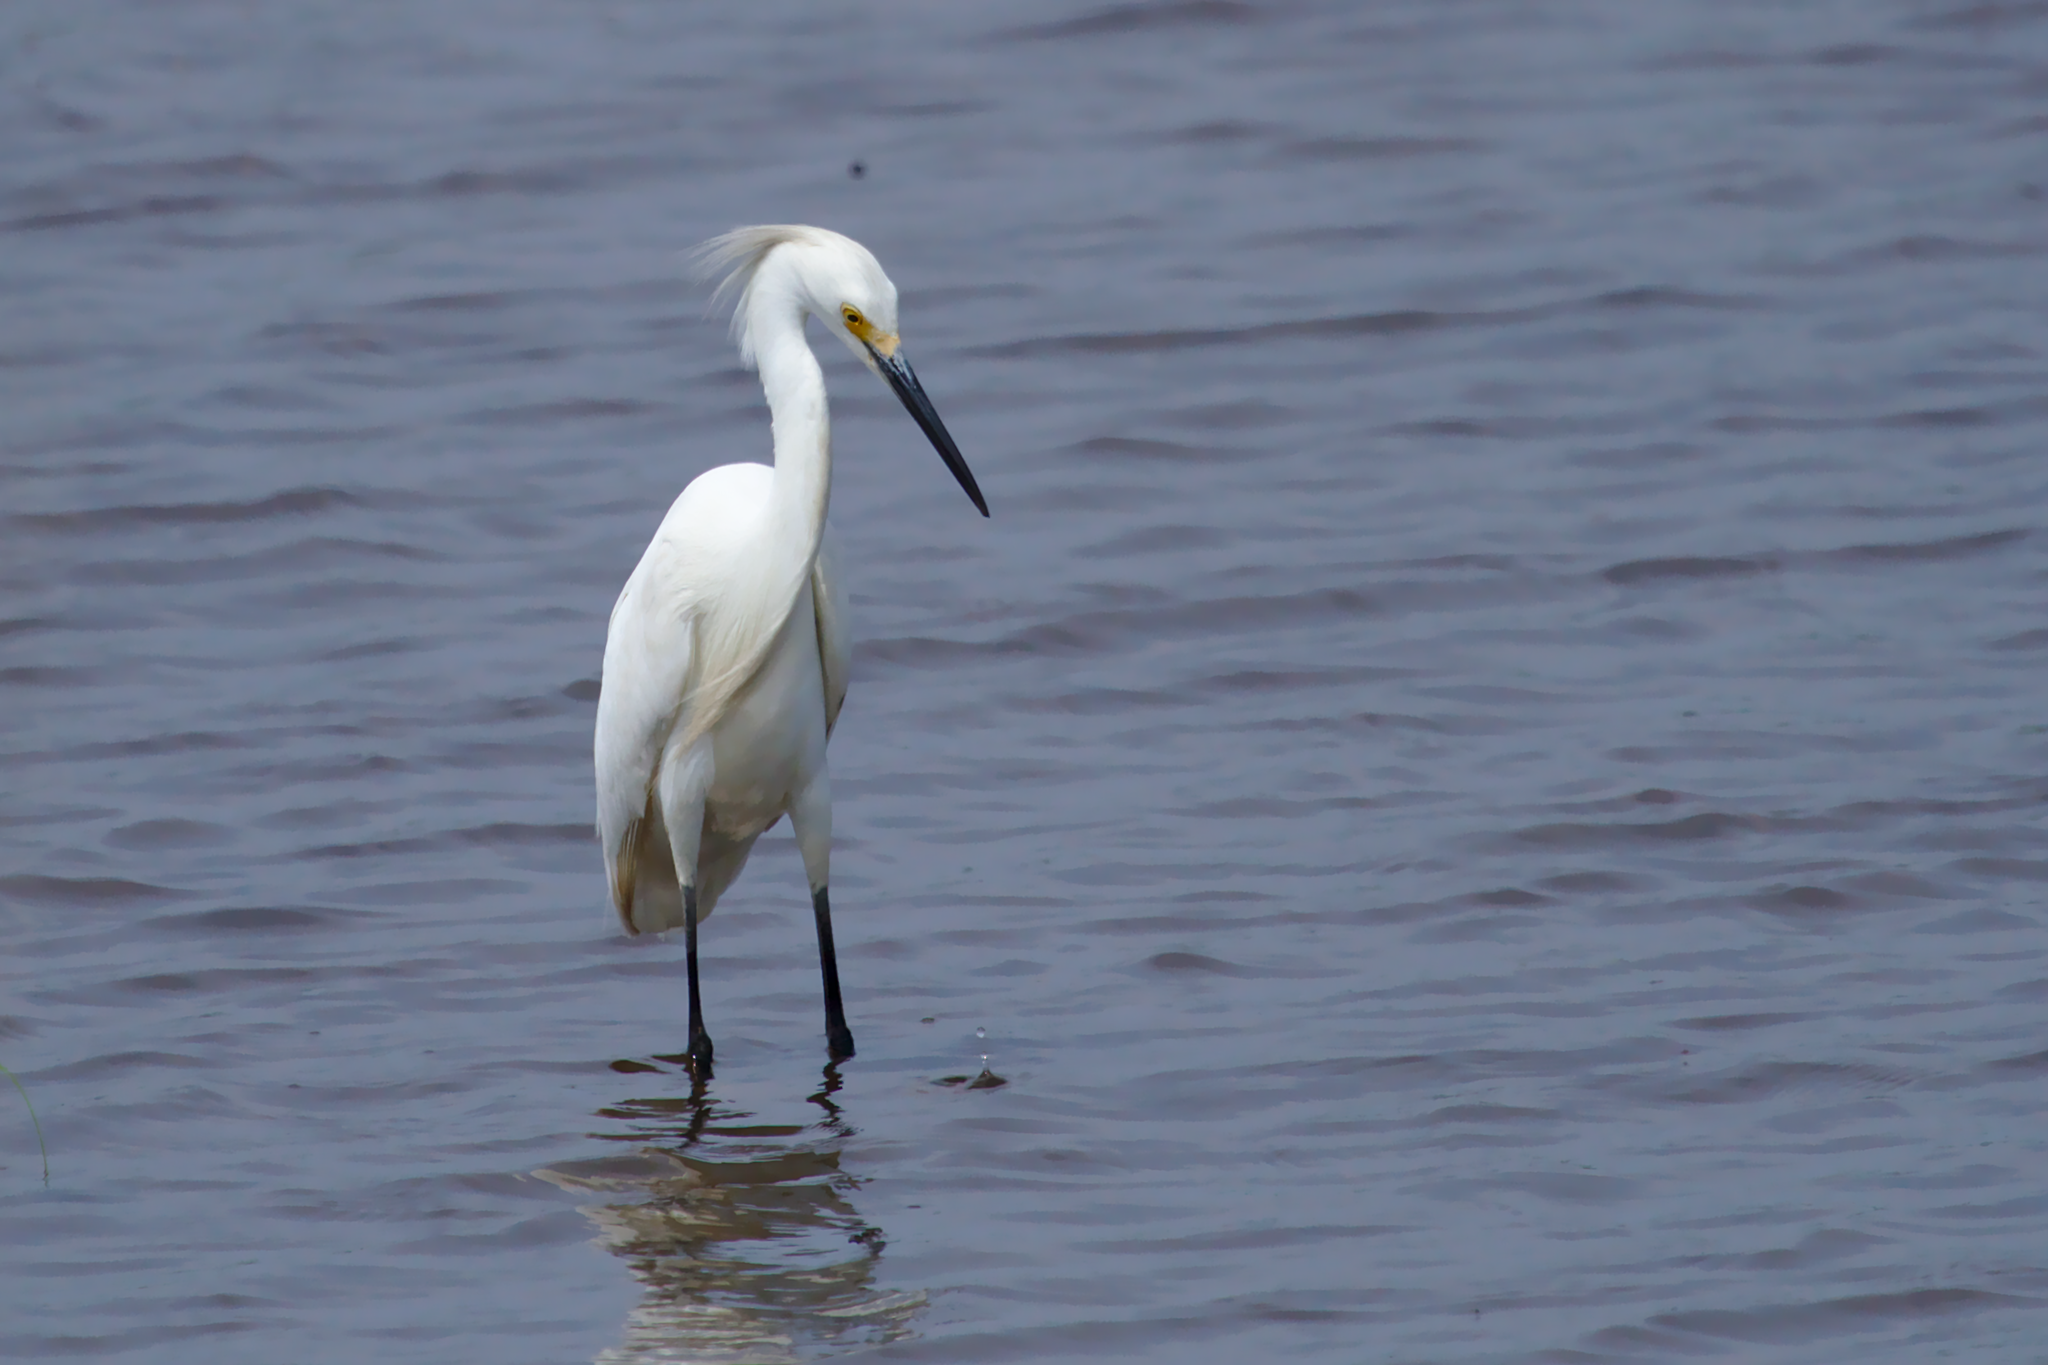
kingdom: Animalia
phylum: Chordata
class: Aves
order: Pelecaniformes
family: Ardeidae
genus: Egretta
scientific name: Egretta thula
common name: Snowy egret
